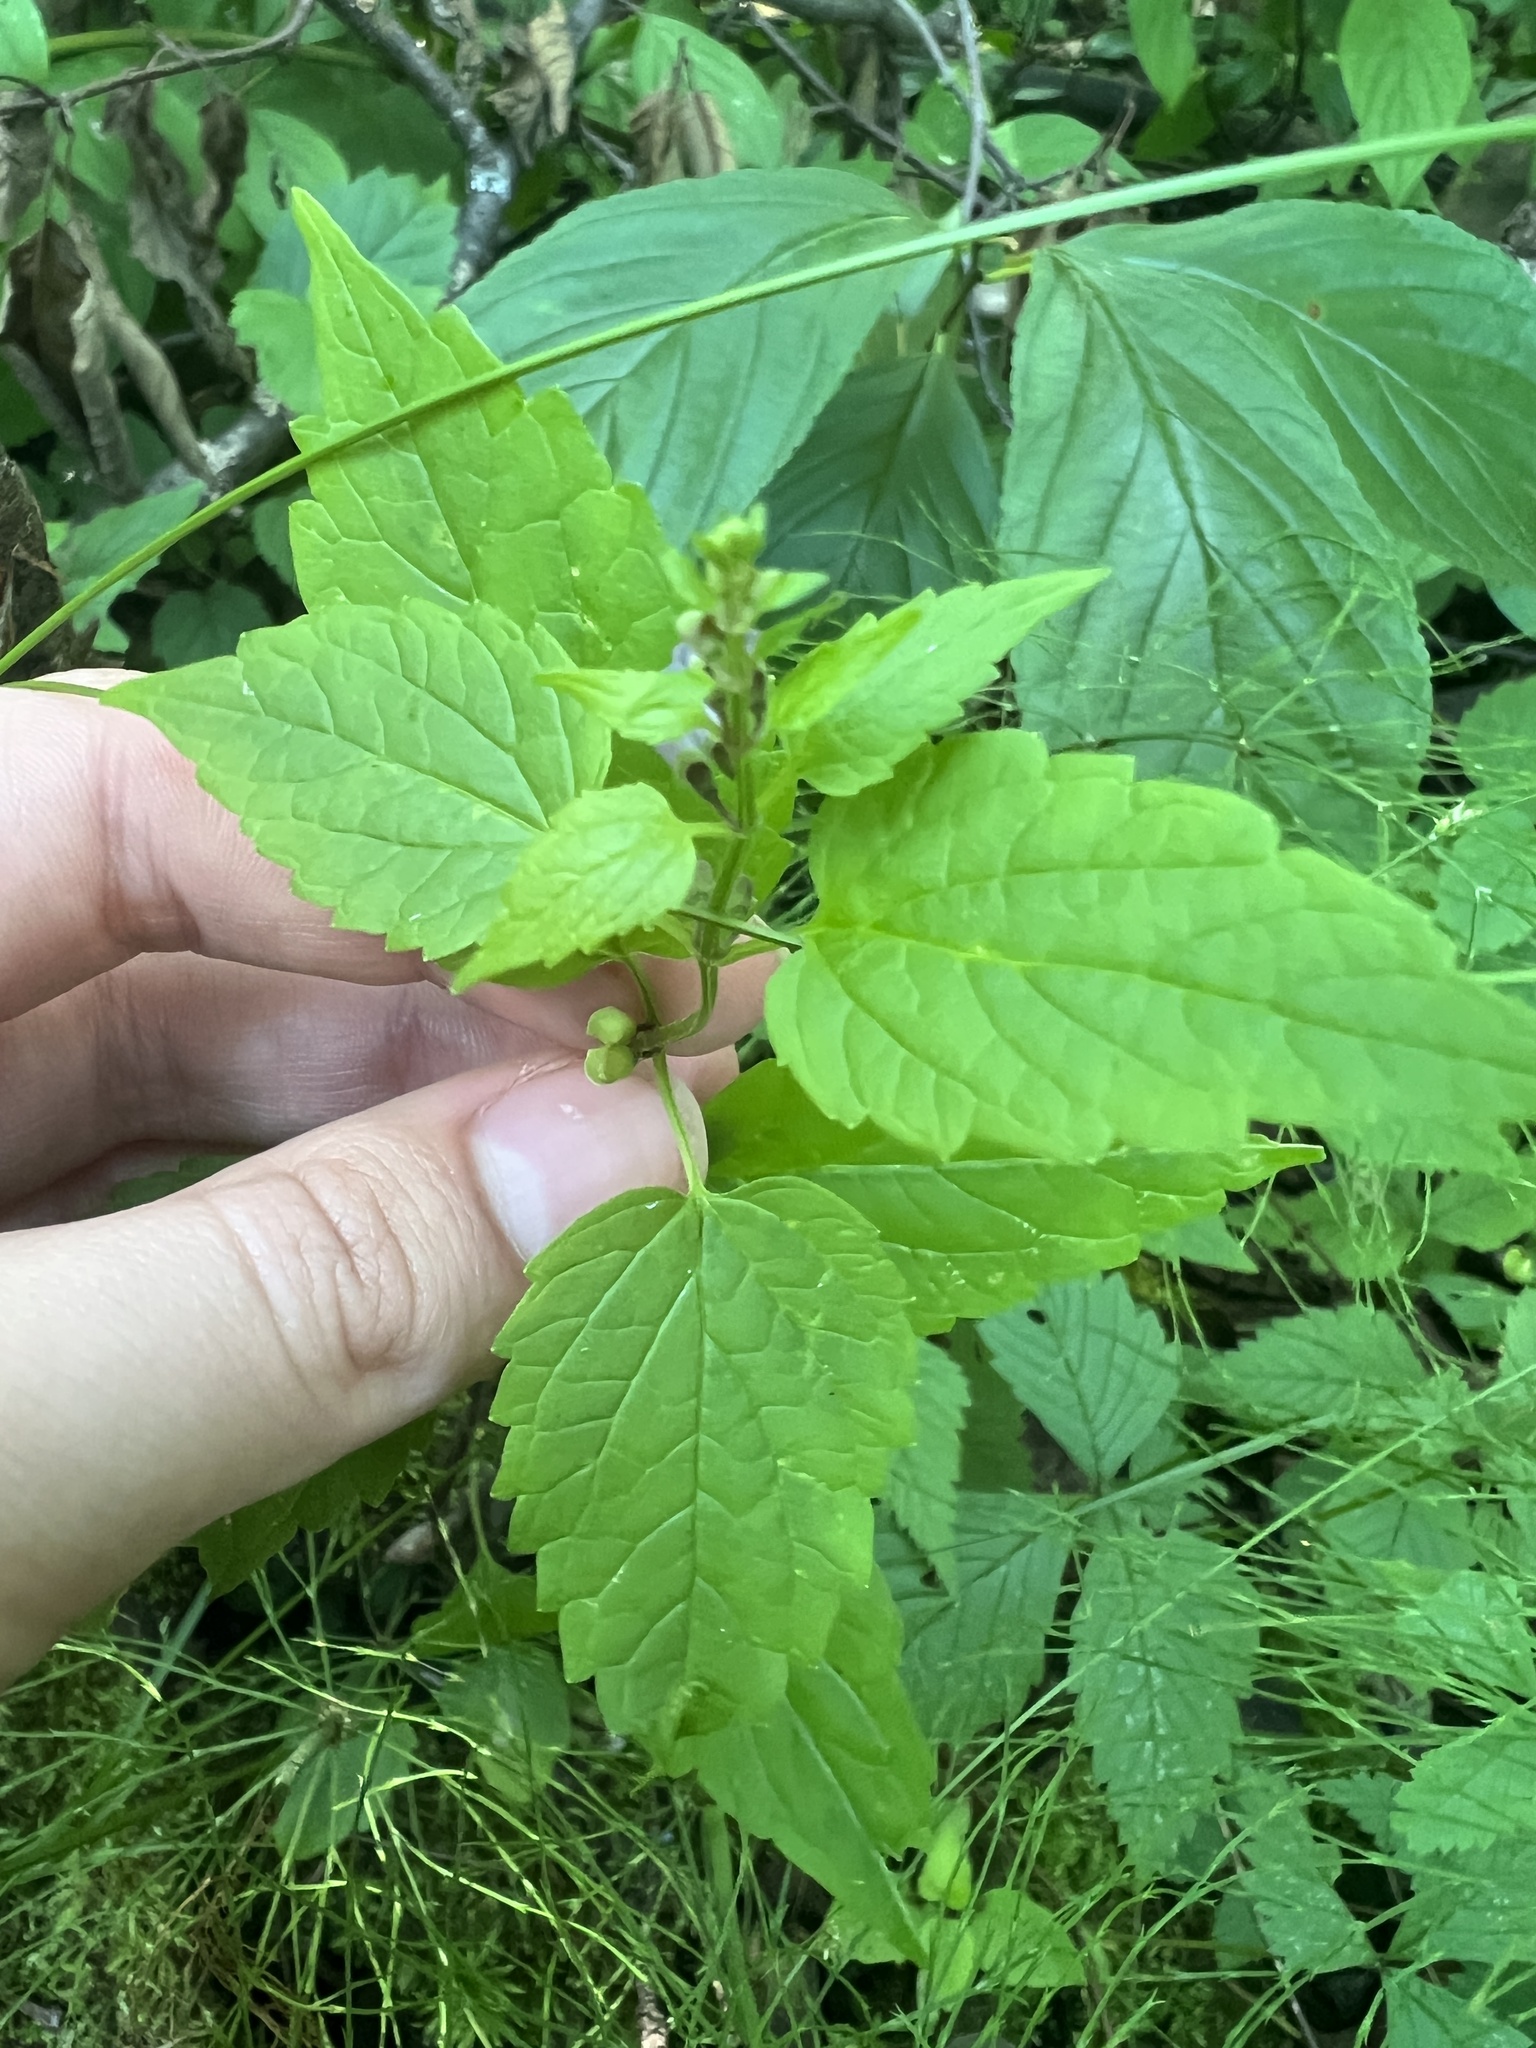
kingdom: Plantae
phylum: Tracheophyta
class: Magnoliopsida
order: Lamiales
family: Lamiaceae
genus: Scutellaria
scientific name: Scutellaria lateriflora
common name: Blue skullcap
